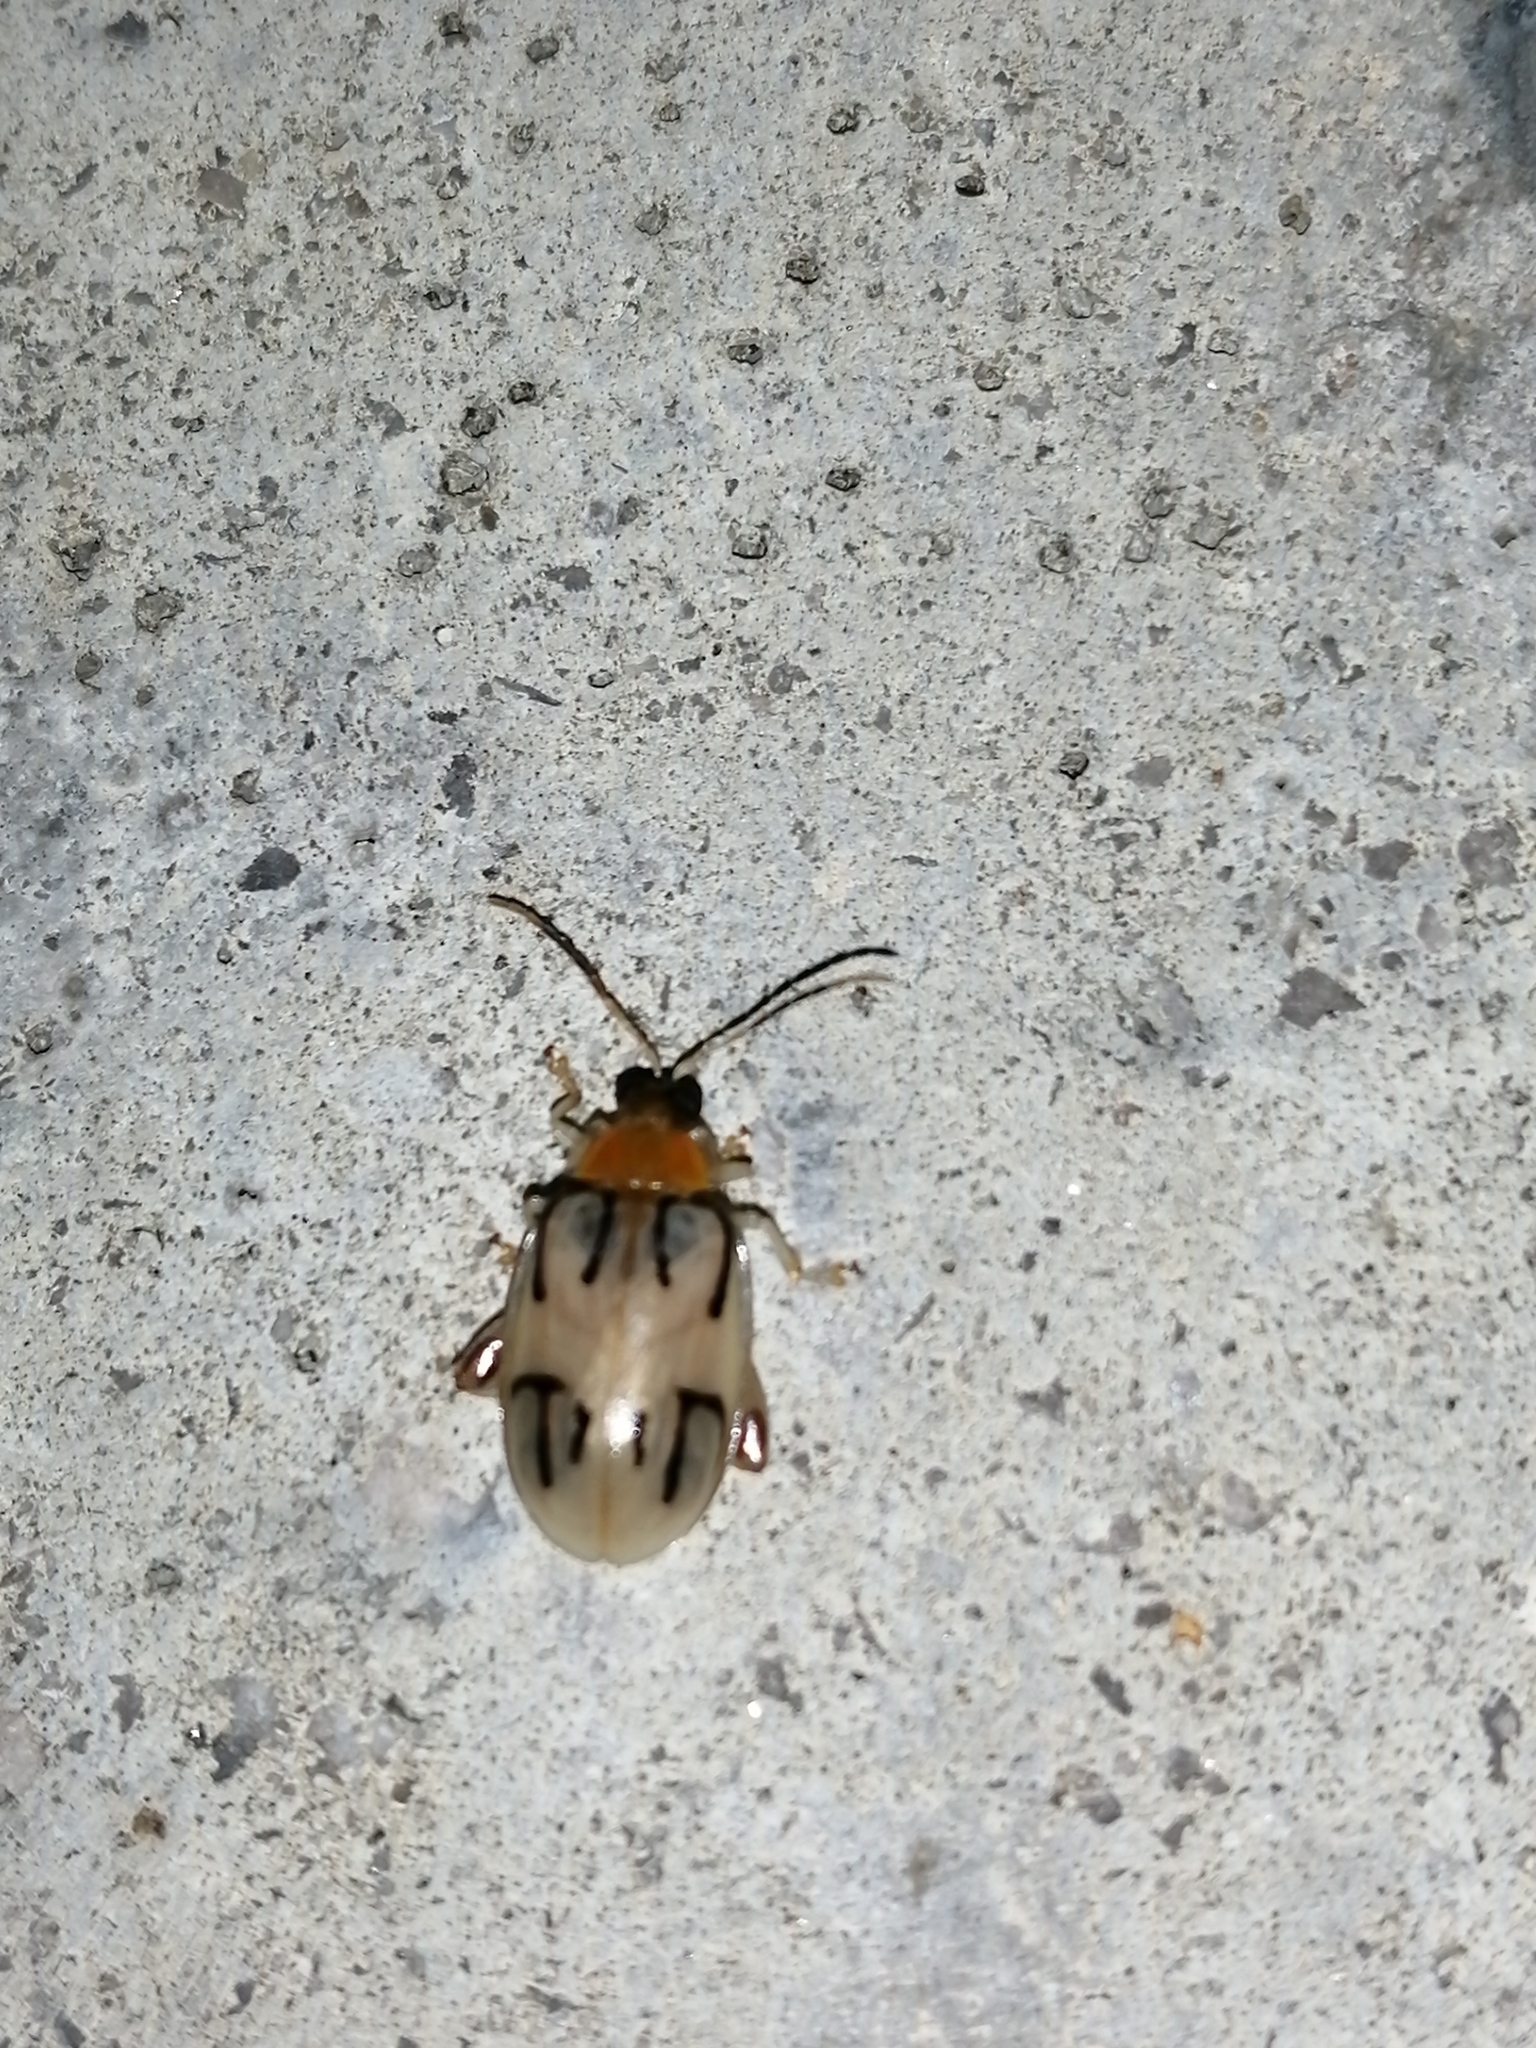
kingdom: Animalia
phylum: Arthropoda
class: Insecta
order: Coleoptera
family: Chrysomelidae
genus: Walterianella
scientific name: Walterianella
